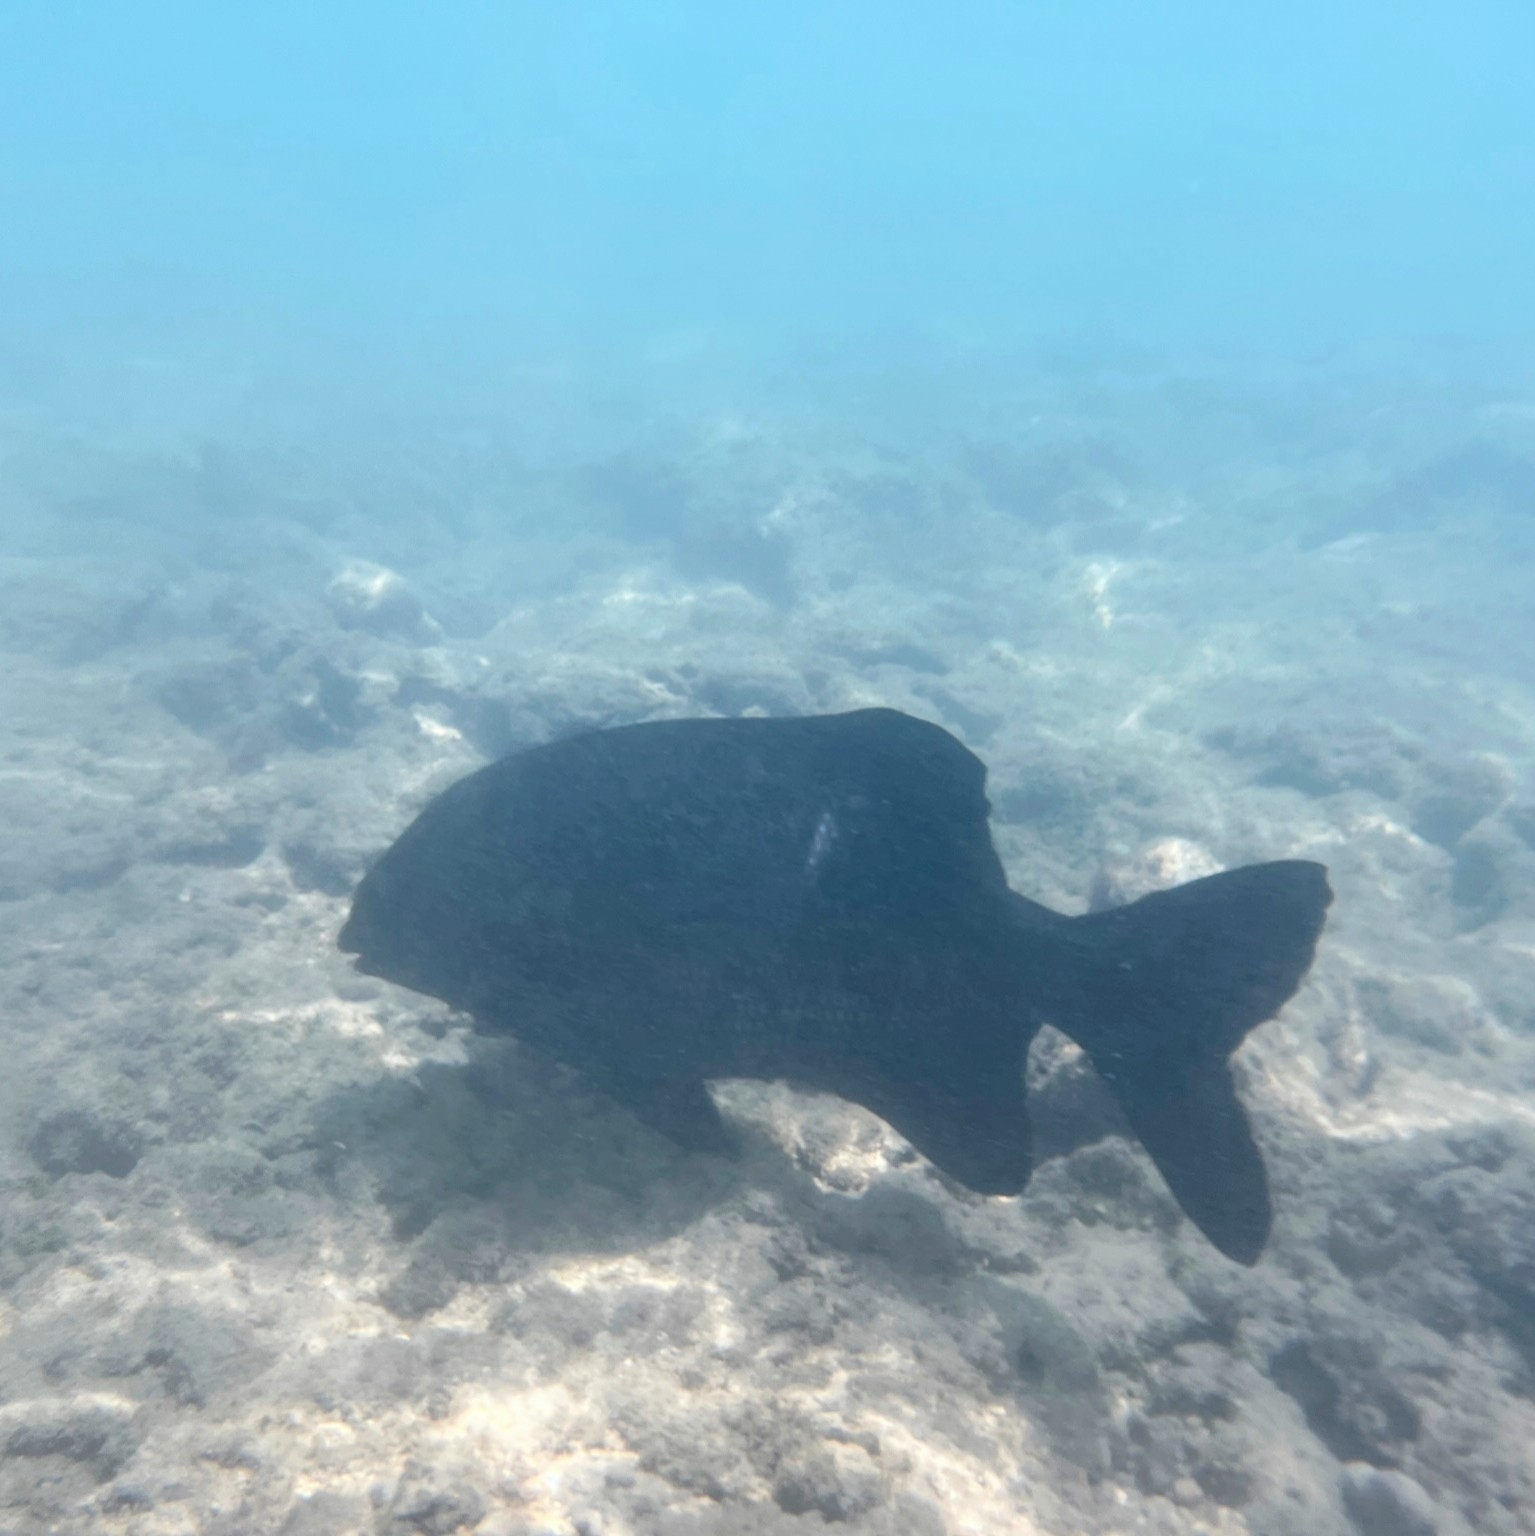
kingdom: Animalia
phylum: Chordata
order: Perciformes
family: Kyphosidae
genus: Kyphosus
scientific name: Kyphosus cinerascens
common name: Topsail drummer
